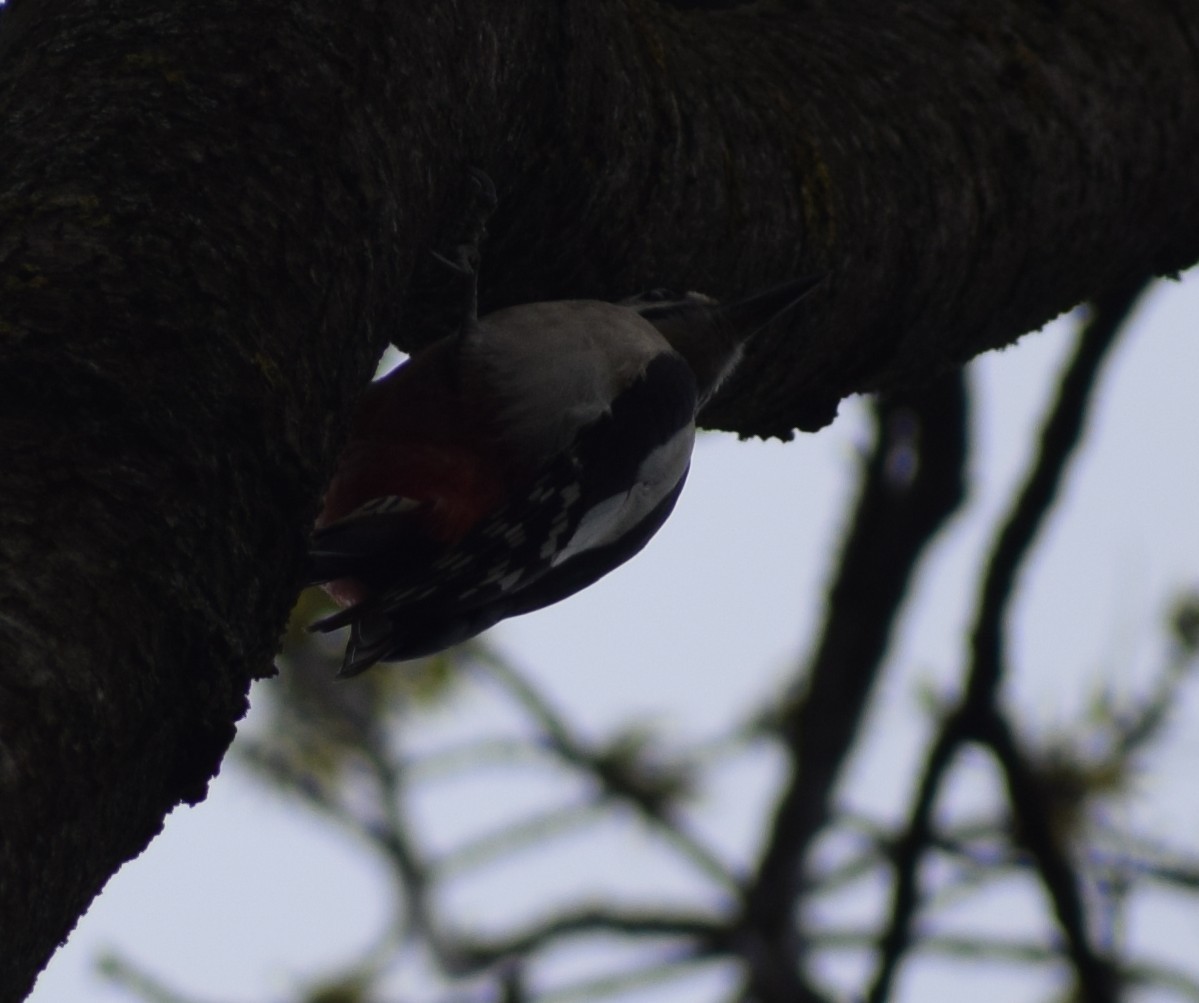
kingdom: Animalia
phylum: Chordata
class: Aves
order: Piciformes
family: Picidae
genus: Dendrocopos
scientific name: Dendrocopos major
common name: Great spotted woodpecker
